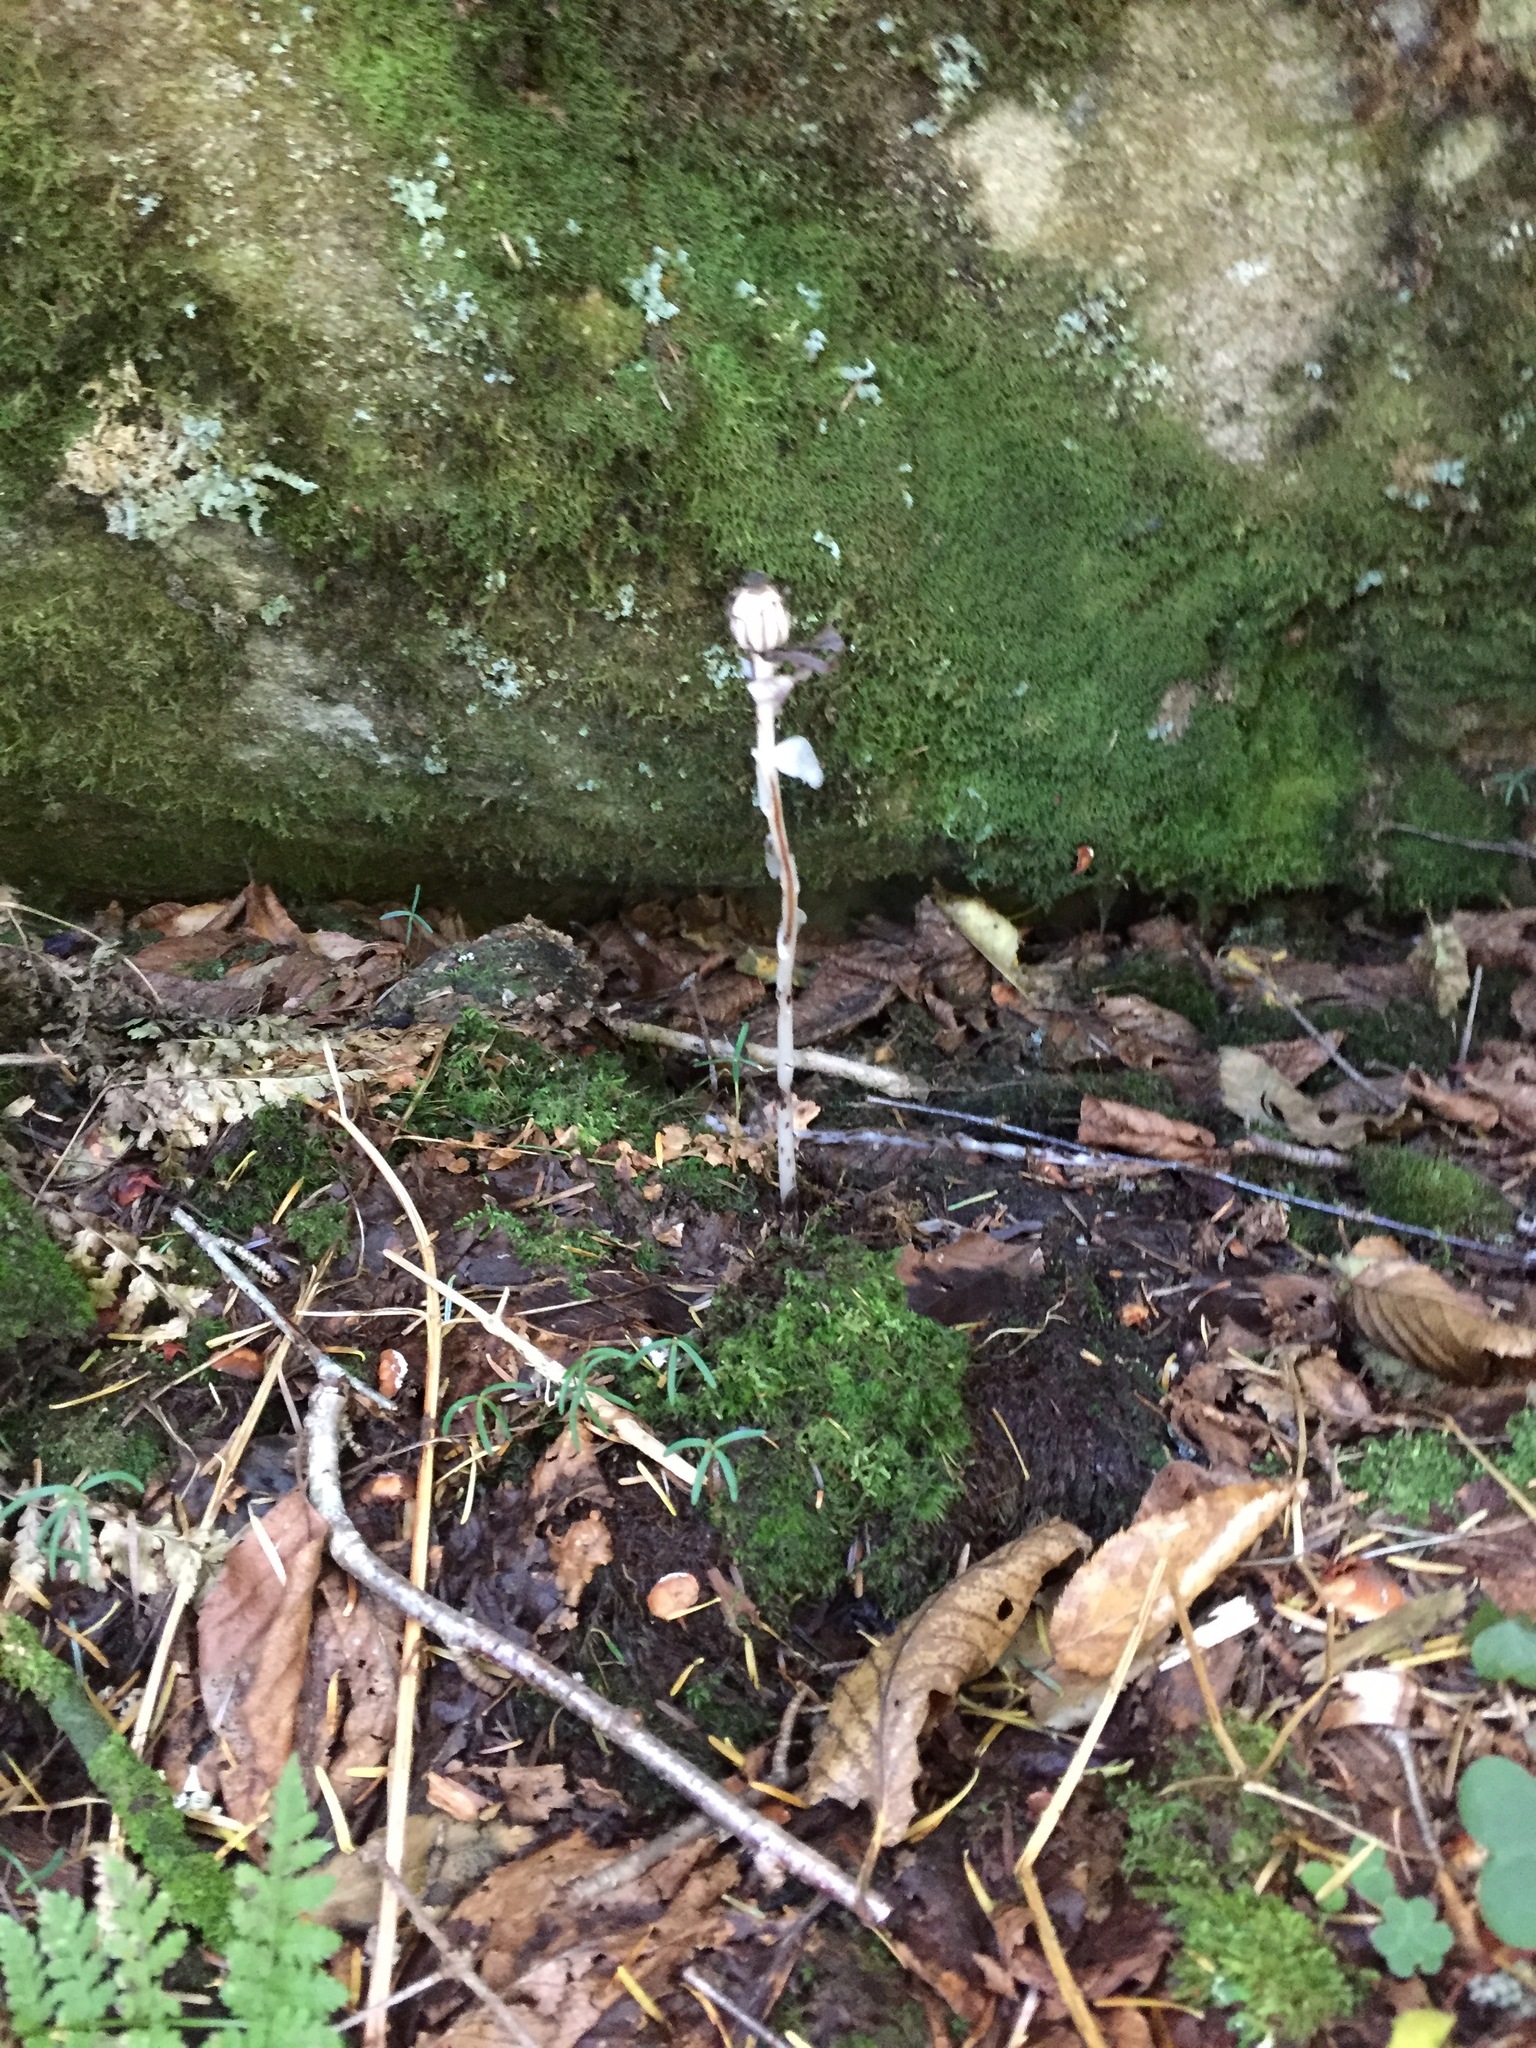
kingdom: Plantae
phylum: Tracheophyta
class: Magnoliopsida
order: Ericales
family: Ericaceae
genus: Monotropa
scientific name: Monotropa uniflora
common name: Convulsion root
